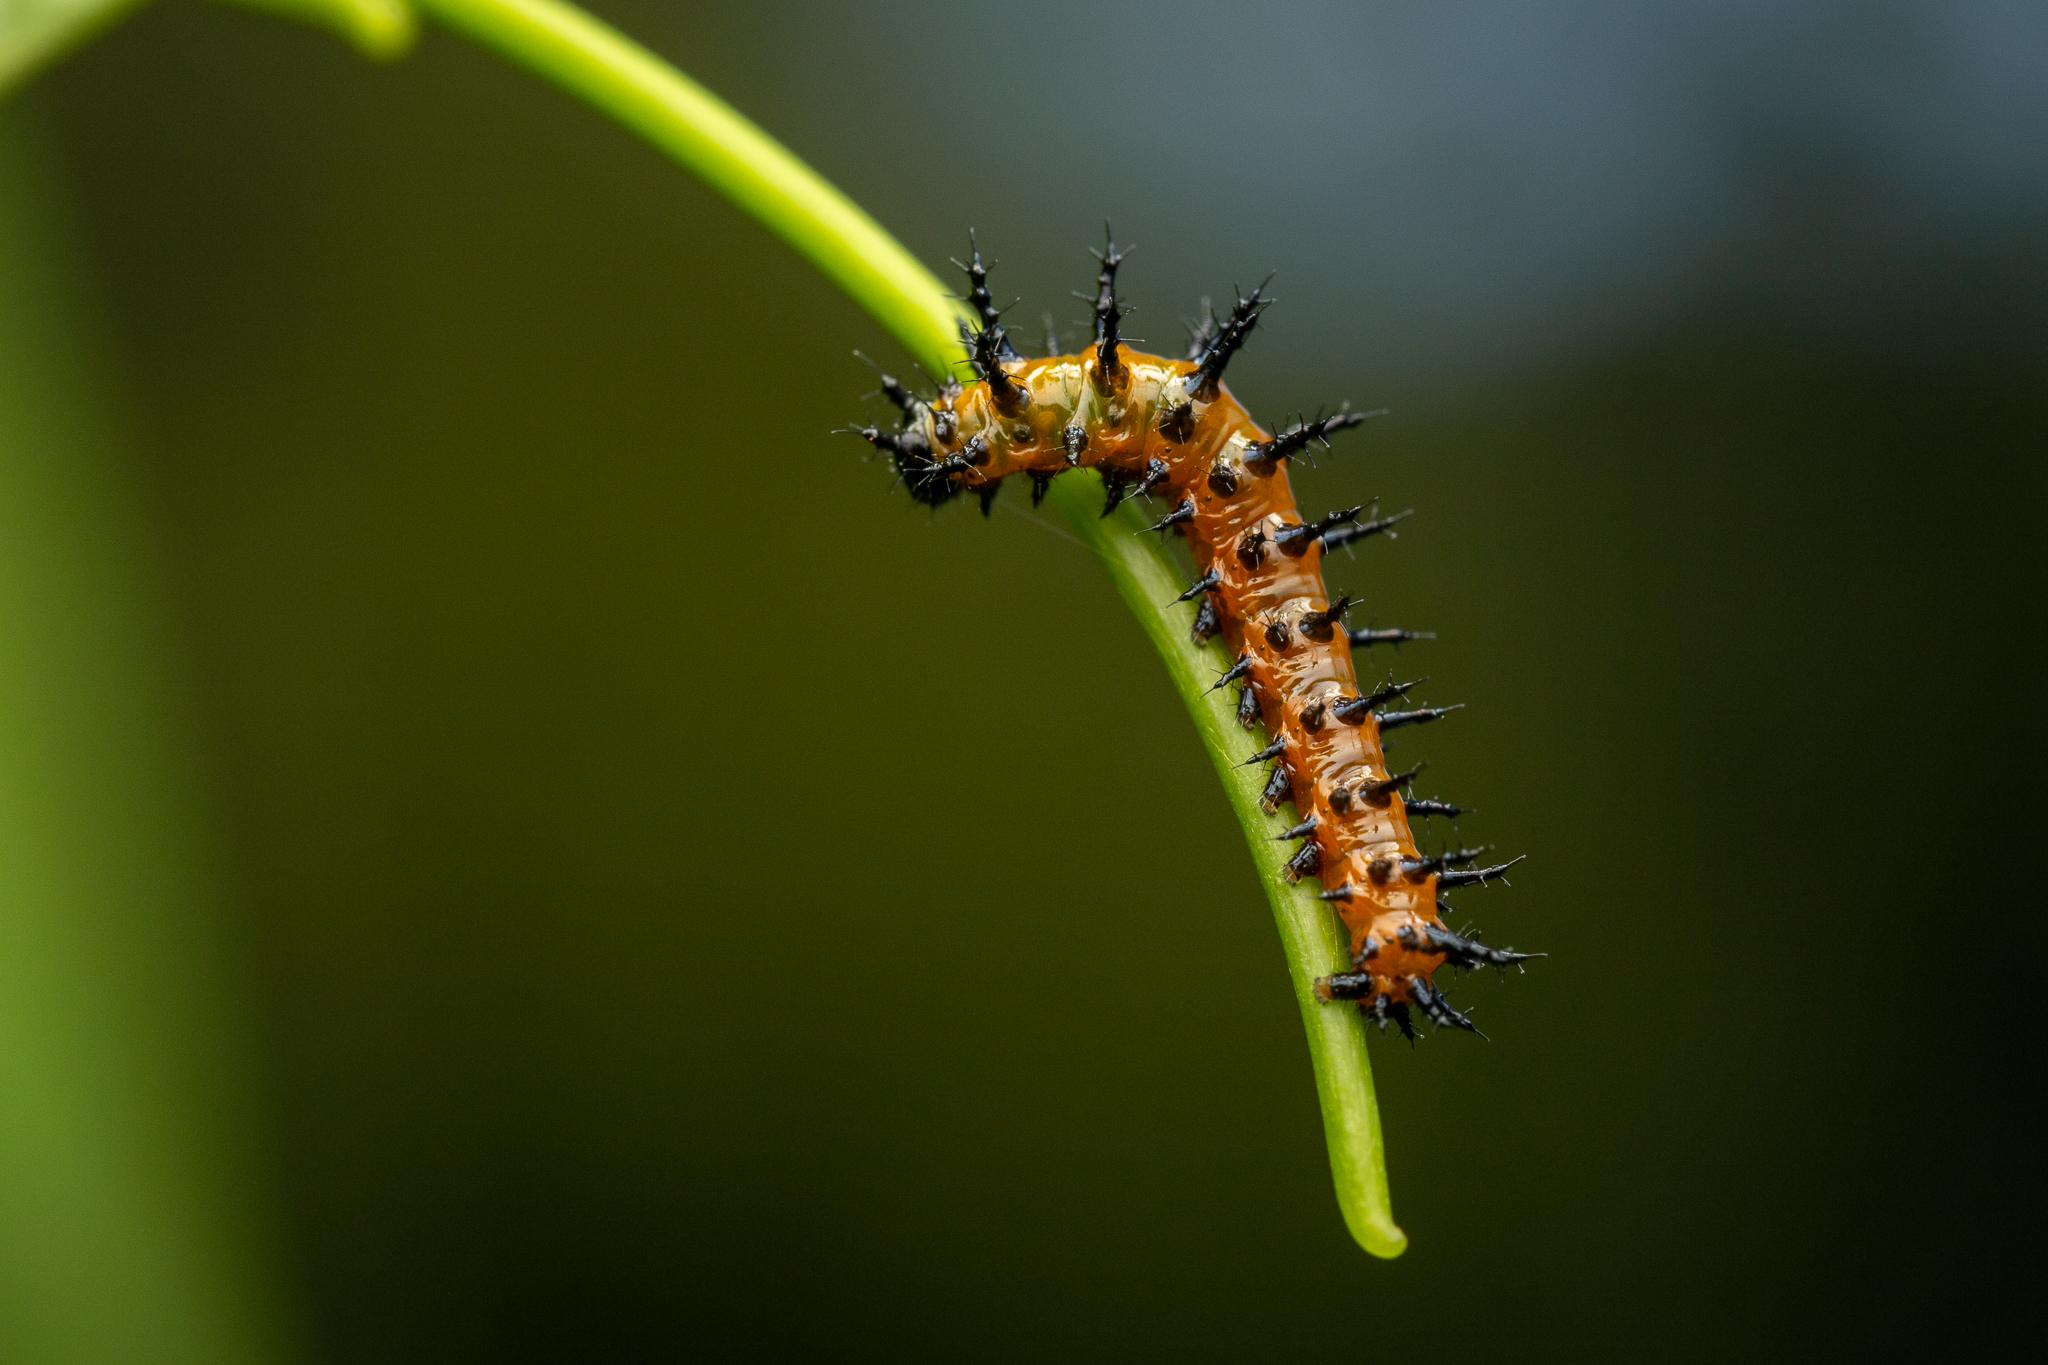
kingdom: Animalia
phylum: Arthropoda
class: Insecta
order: Lepidoptera
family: Nymphalidae
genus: Dione
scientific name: Dione vanillae
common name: Gulf fritillary
